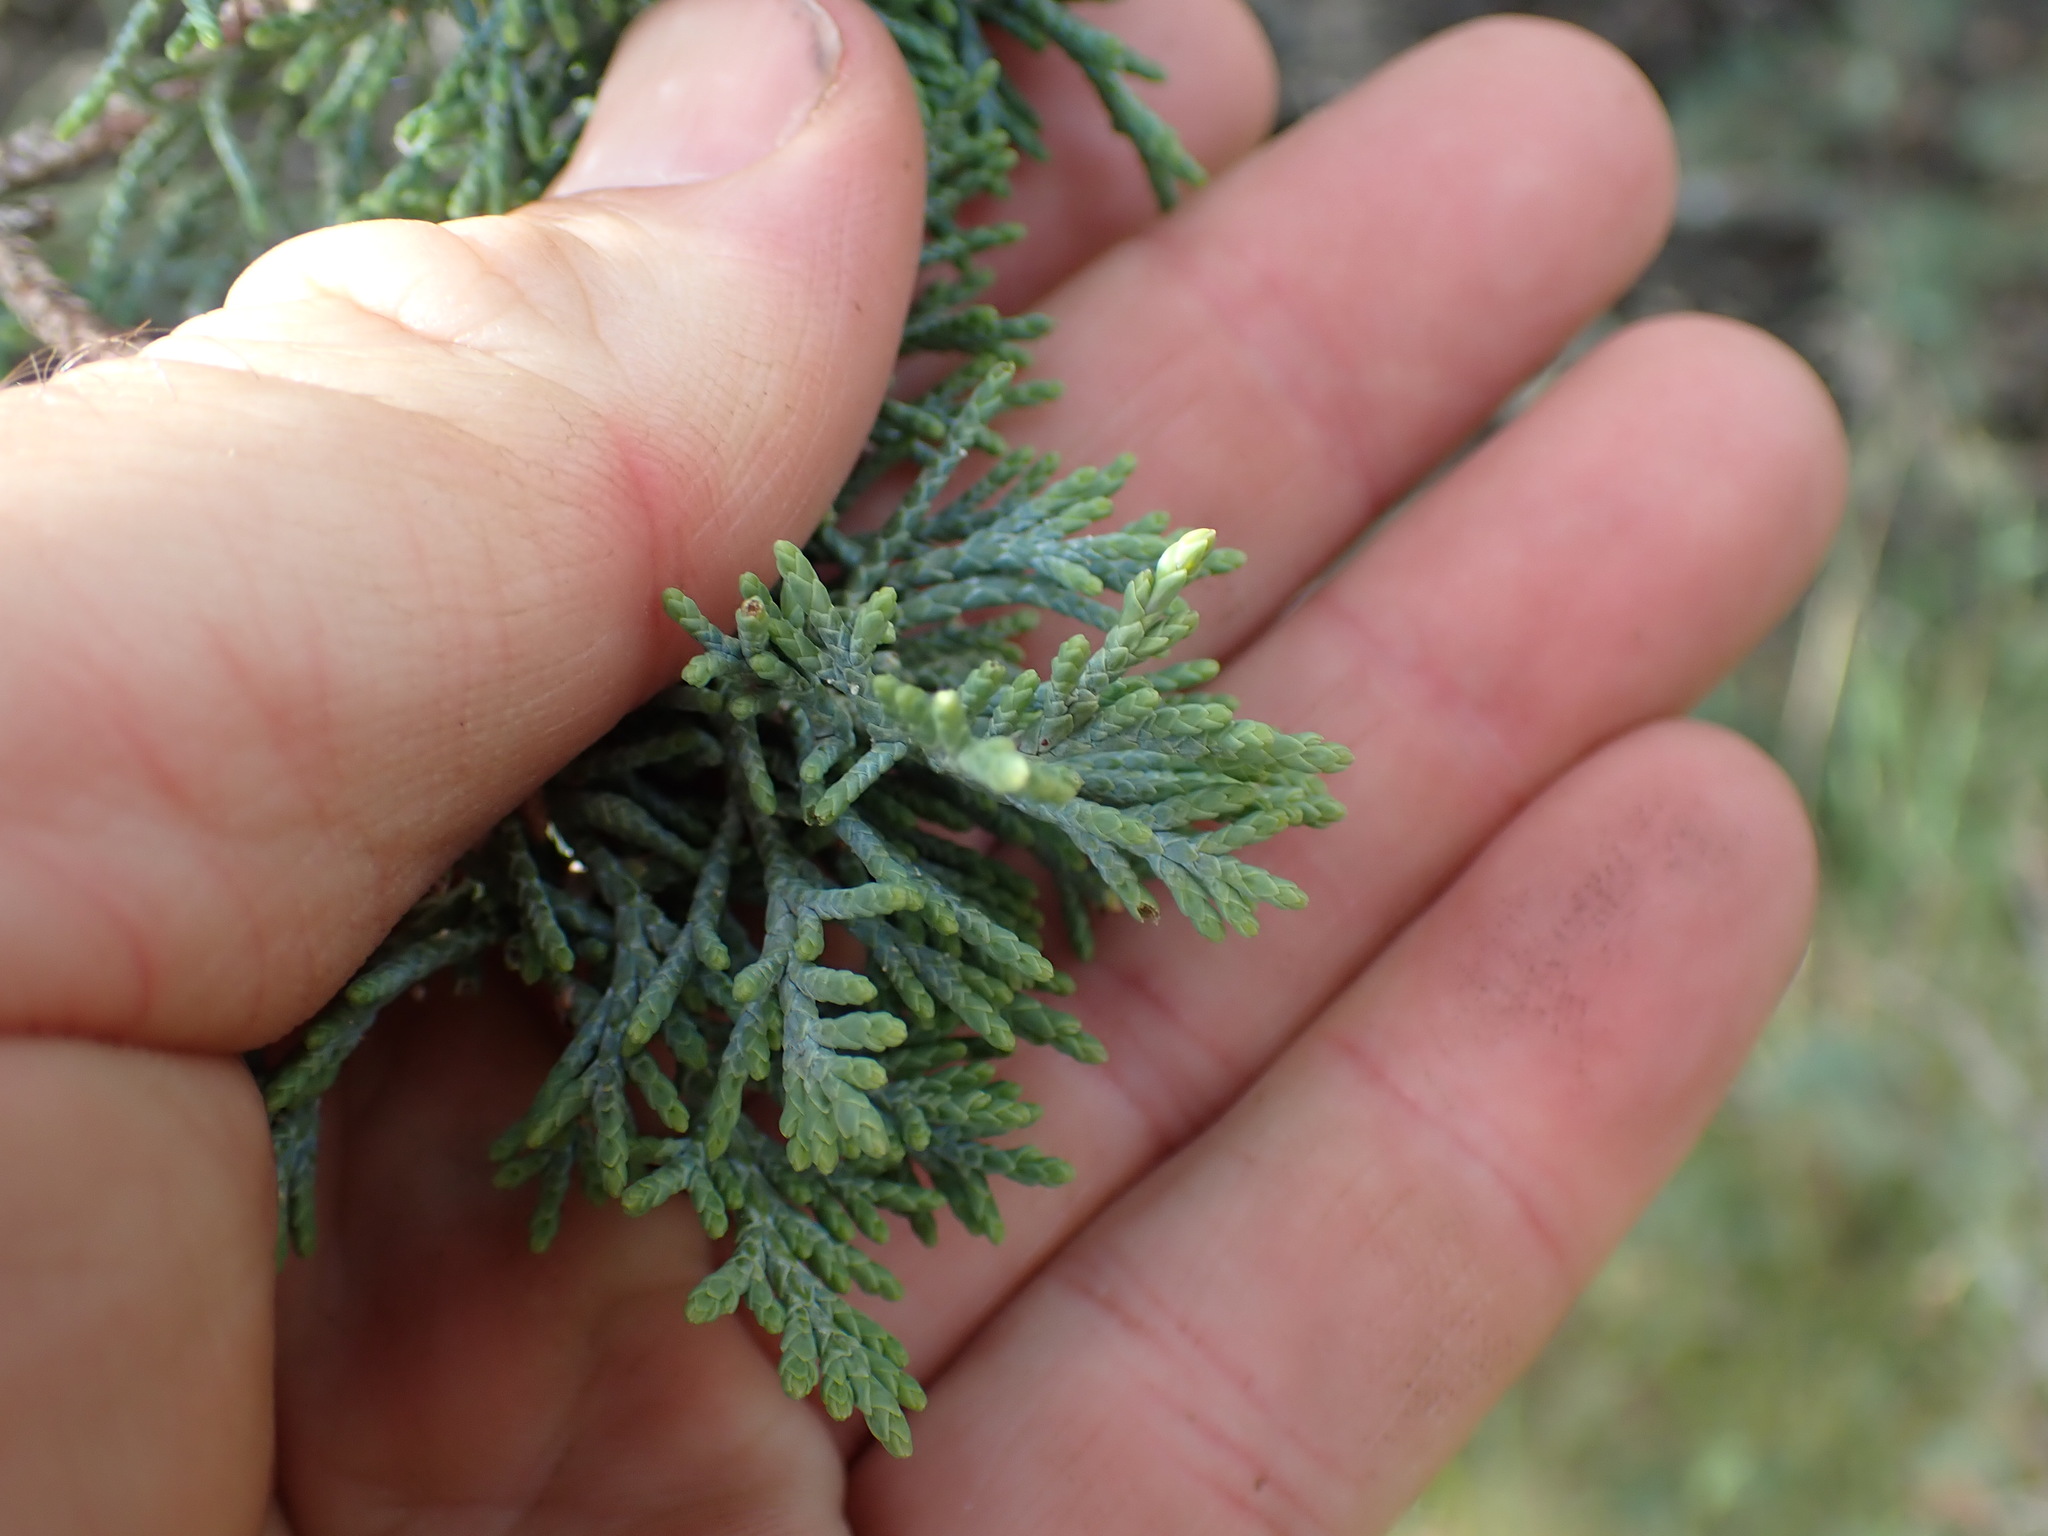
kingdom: Plantae
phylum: Tracheophyta
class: Pinopsida
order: Pinales
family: Cupressaceae
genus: Juniperus
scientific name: Juniperus scopulorum
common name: Rocky mountain juniper
